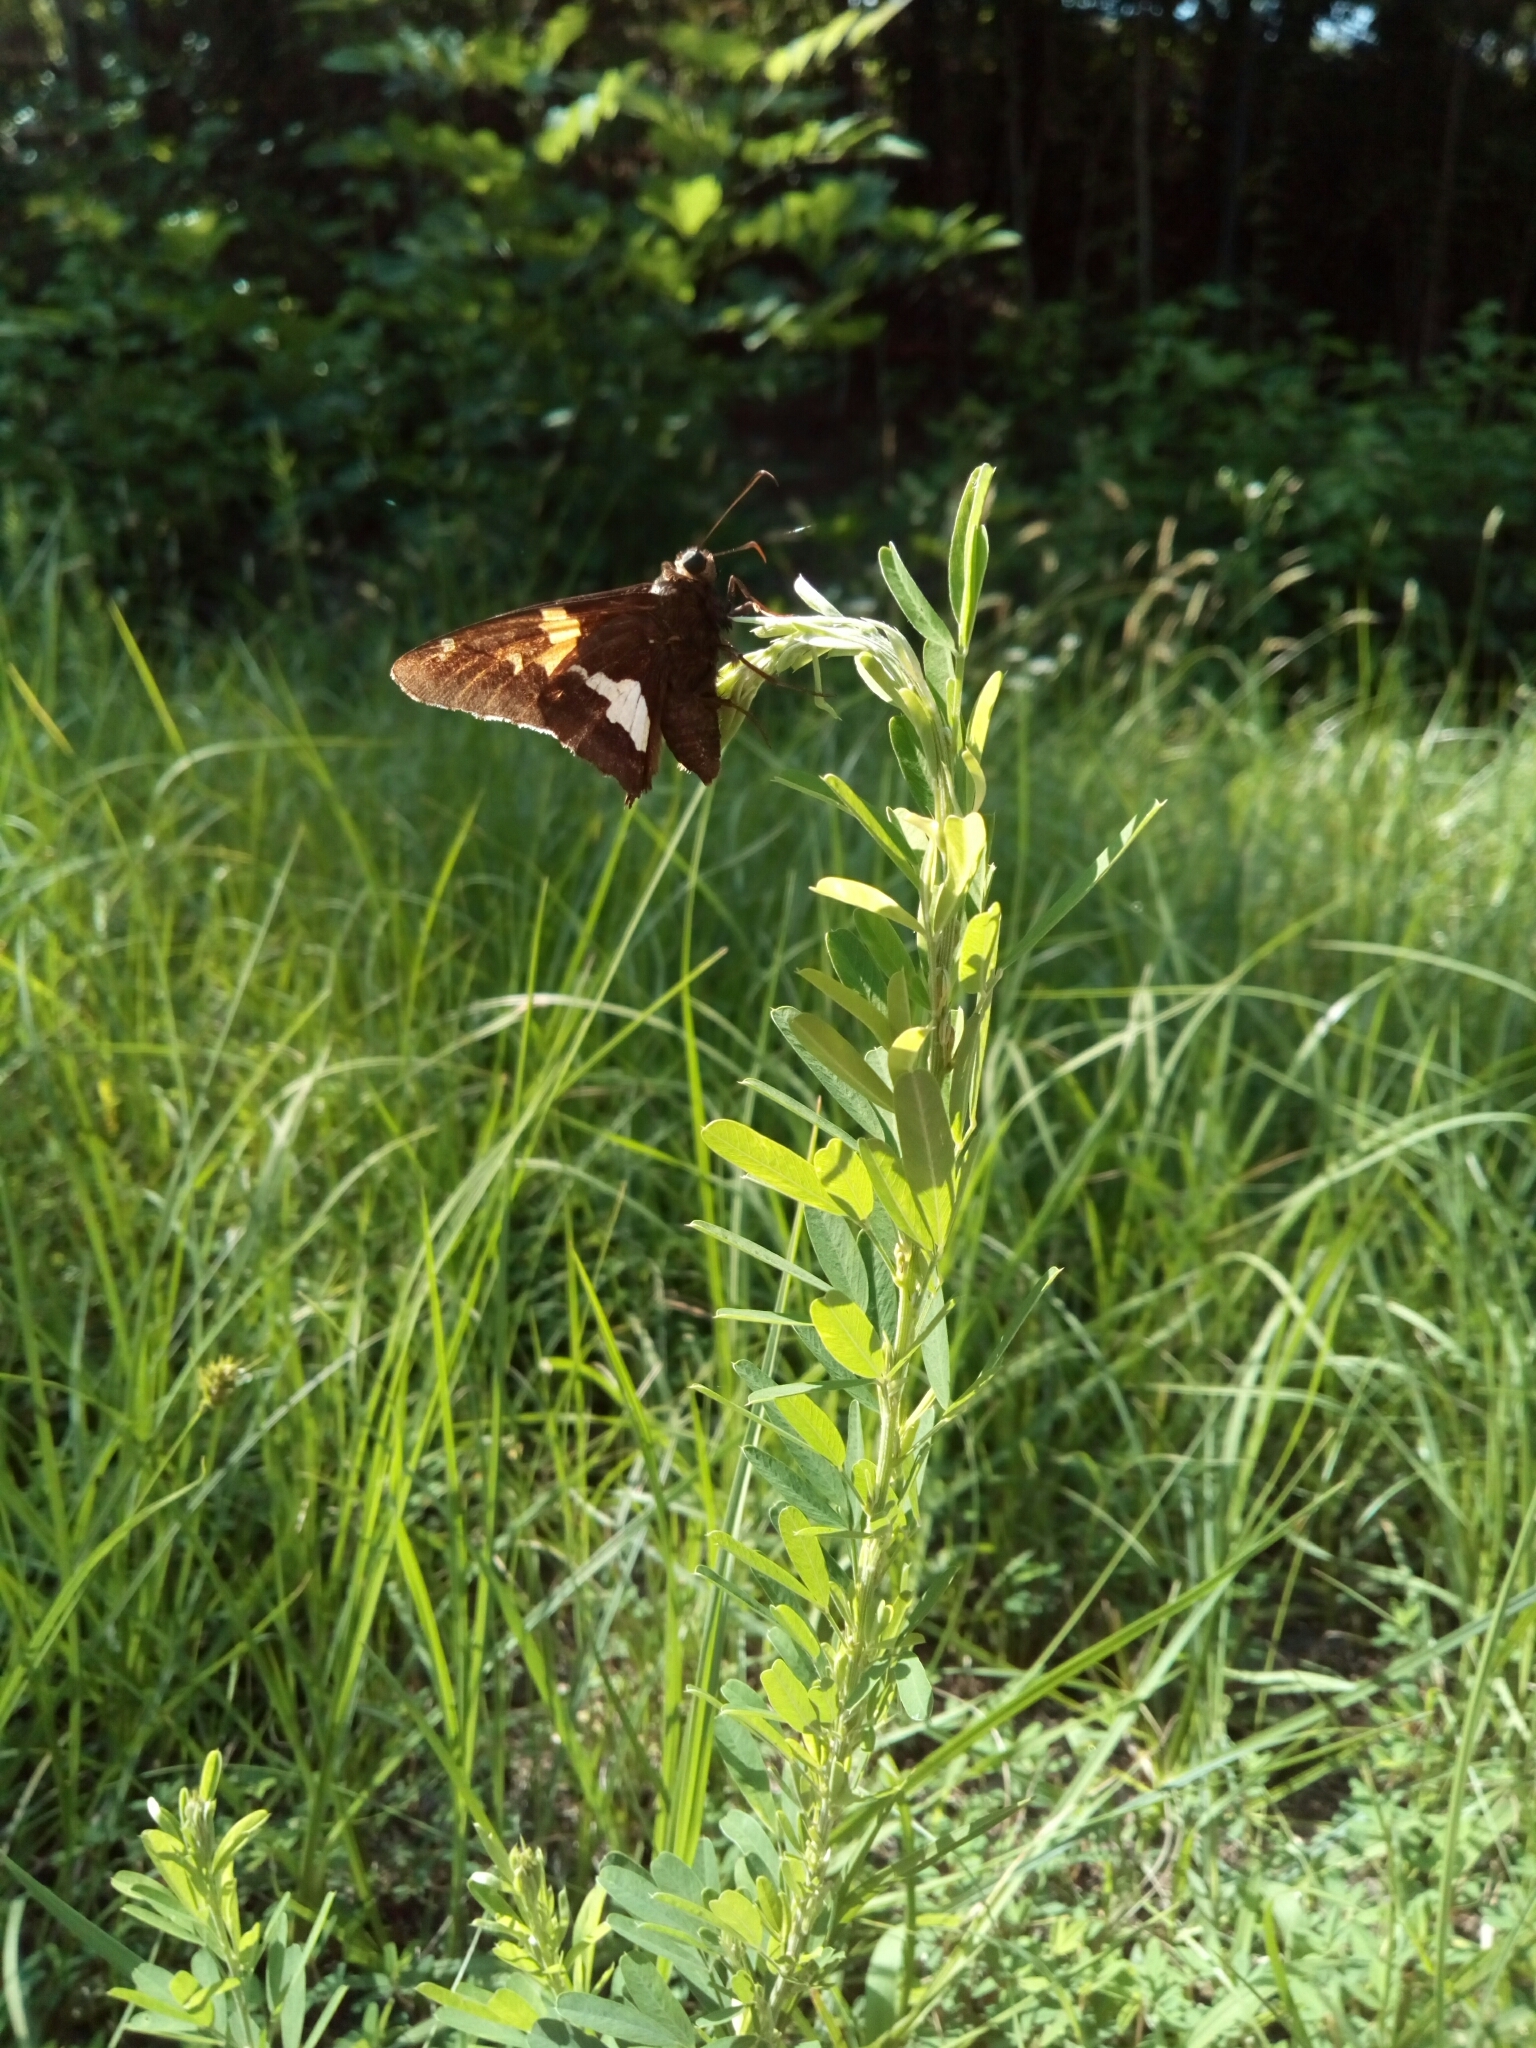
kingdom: Animalia
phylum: Arthropoda
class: Insecta
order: Lepidoptera
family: Hesperiidae
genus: Epargyreus
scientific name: Epargyreus clarus
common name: Silver-spotted skipper
